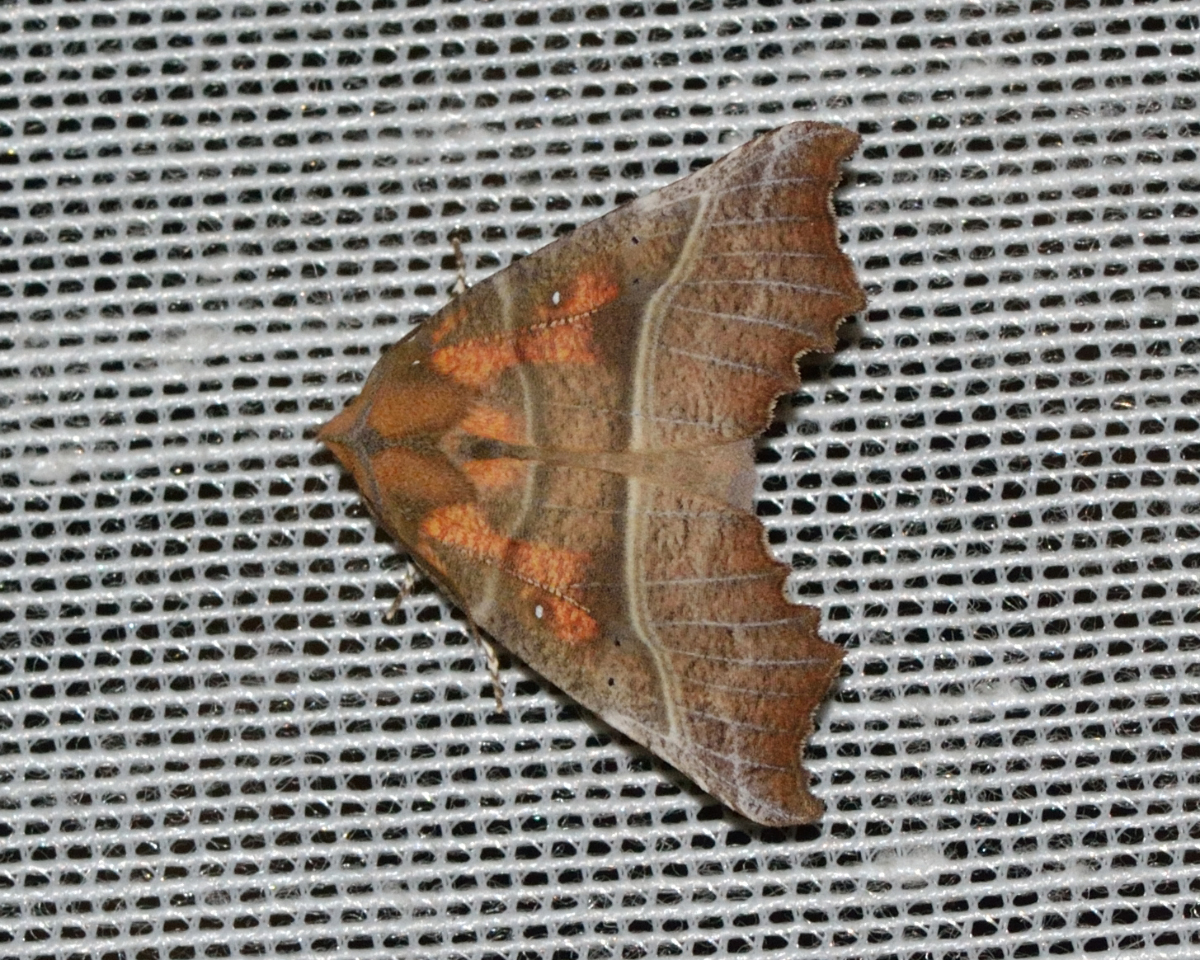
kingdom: Animalia
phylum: Arthropoda
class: Insecta
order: Lepidoptera
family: Erebidae
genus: Scoliopteryx
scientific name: Scoliopteryx libatrix
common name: Herald
